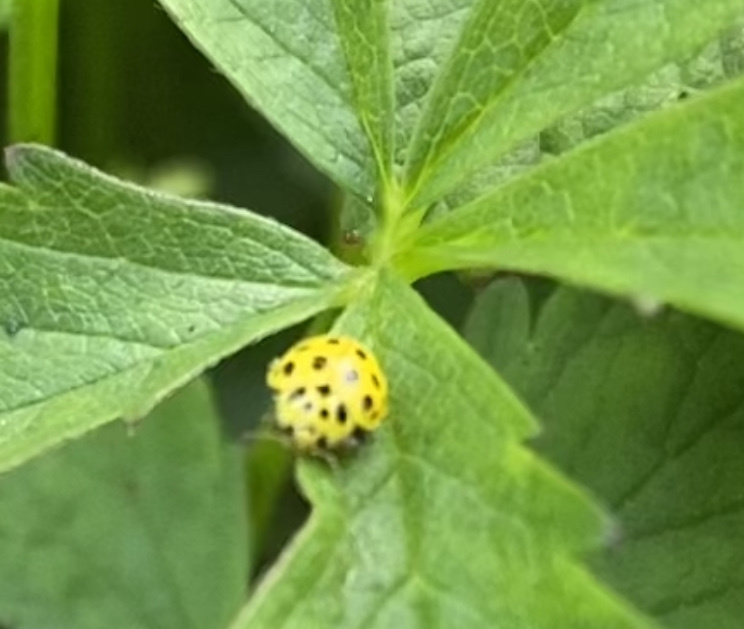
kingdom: Animalia
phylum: Arthropoda
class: Insecta
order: Coleoptera
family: Coccinellidae
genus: Psyllobora
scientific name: Psyllobora vigintiduopunctata
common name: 22-spot ladybird
